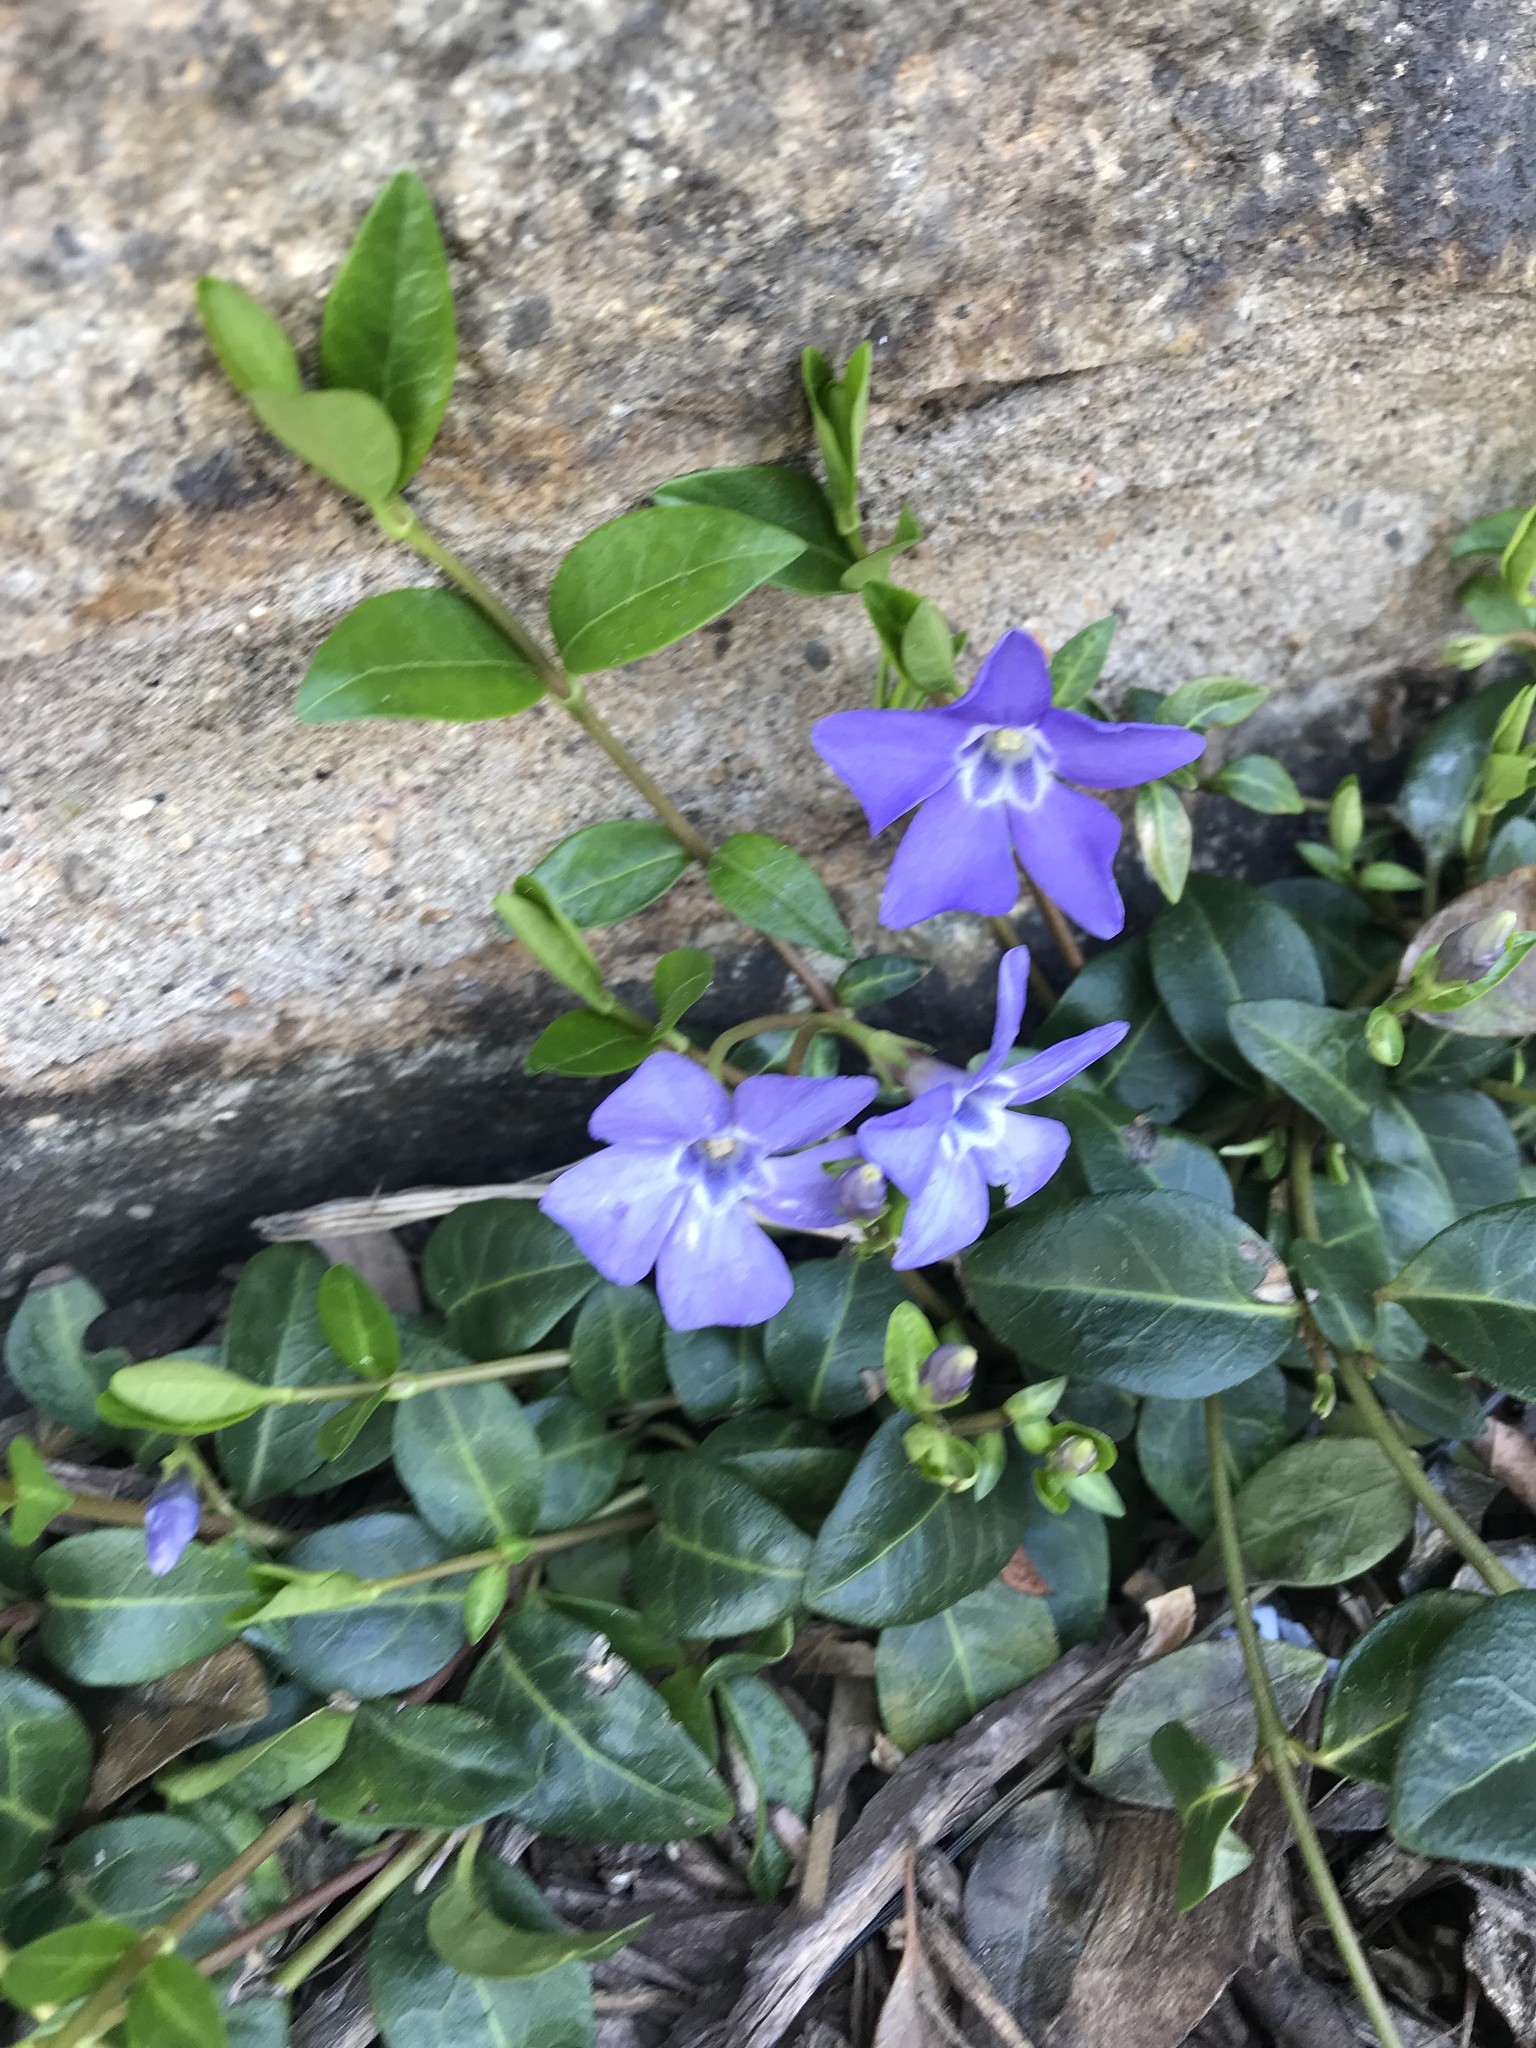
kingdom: Plantae
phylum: Tracheophyta
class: Magnoliopsida
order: Gentianales
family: Apocynaceae
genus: Vinca
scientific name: Vinca minor
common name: Lesser periwinkle
